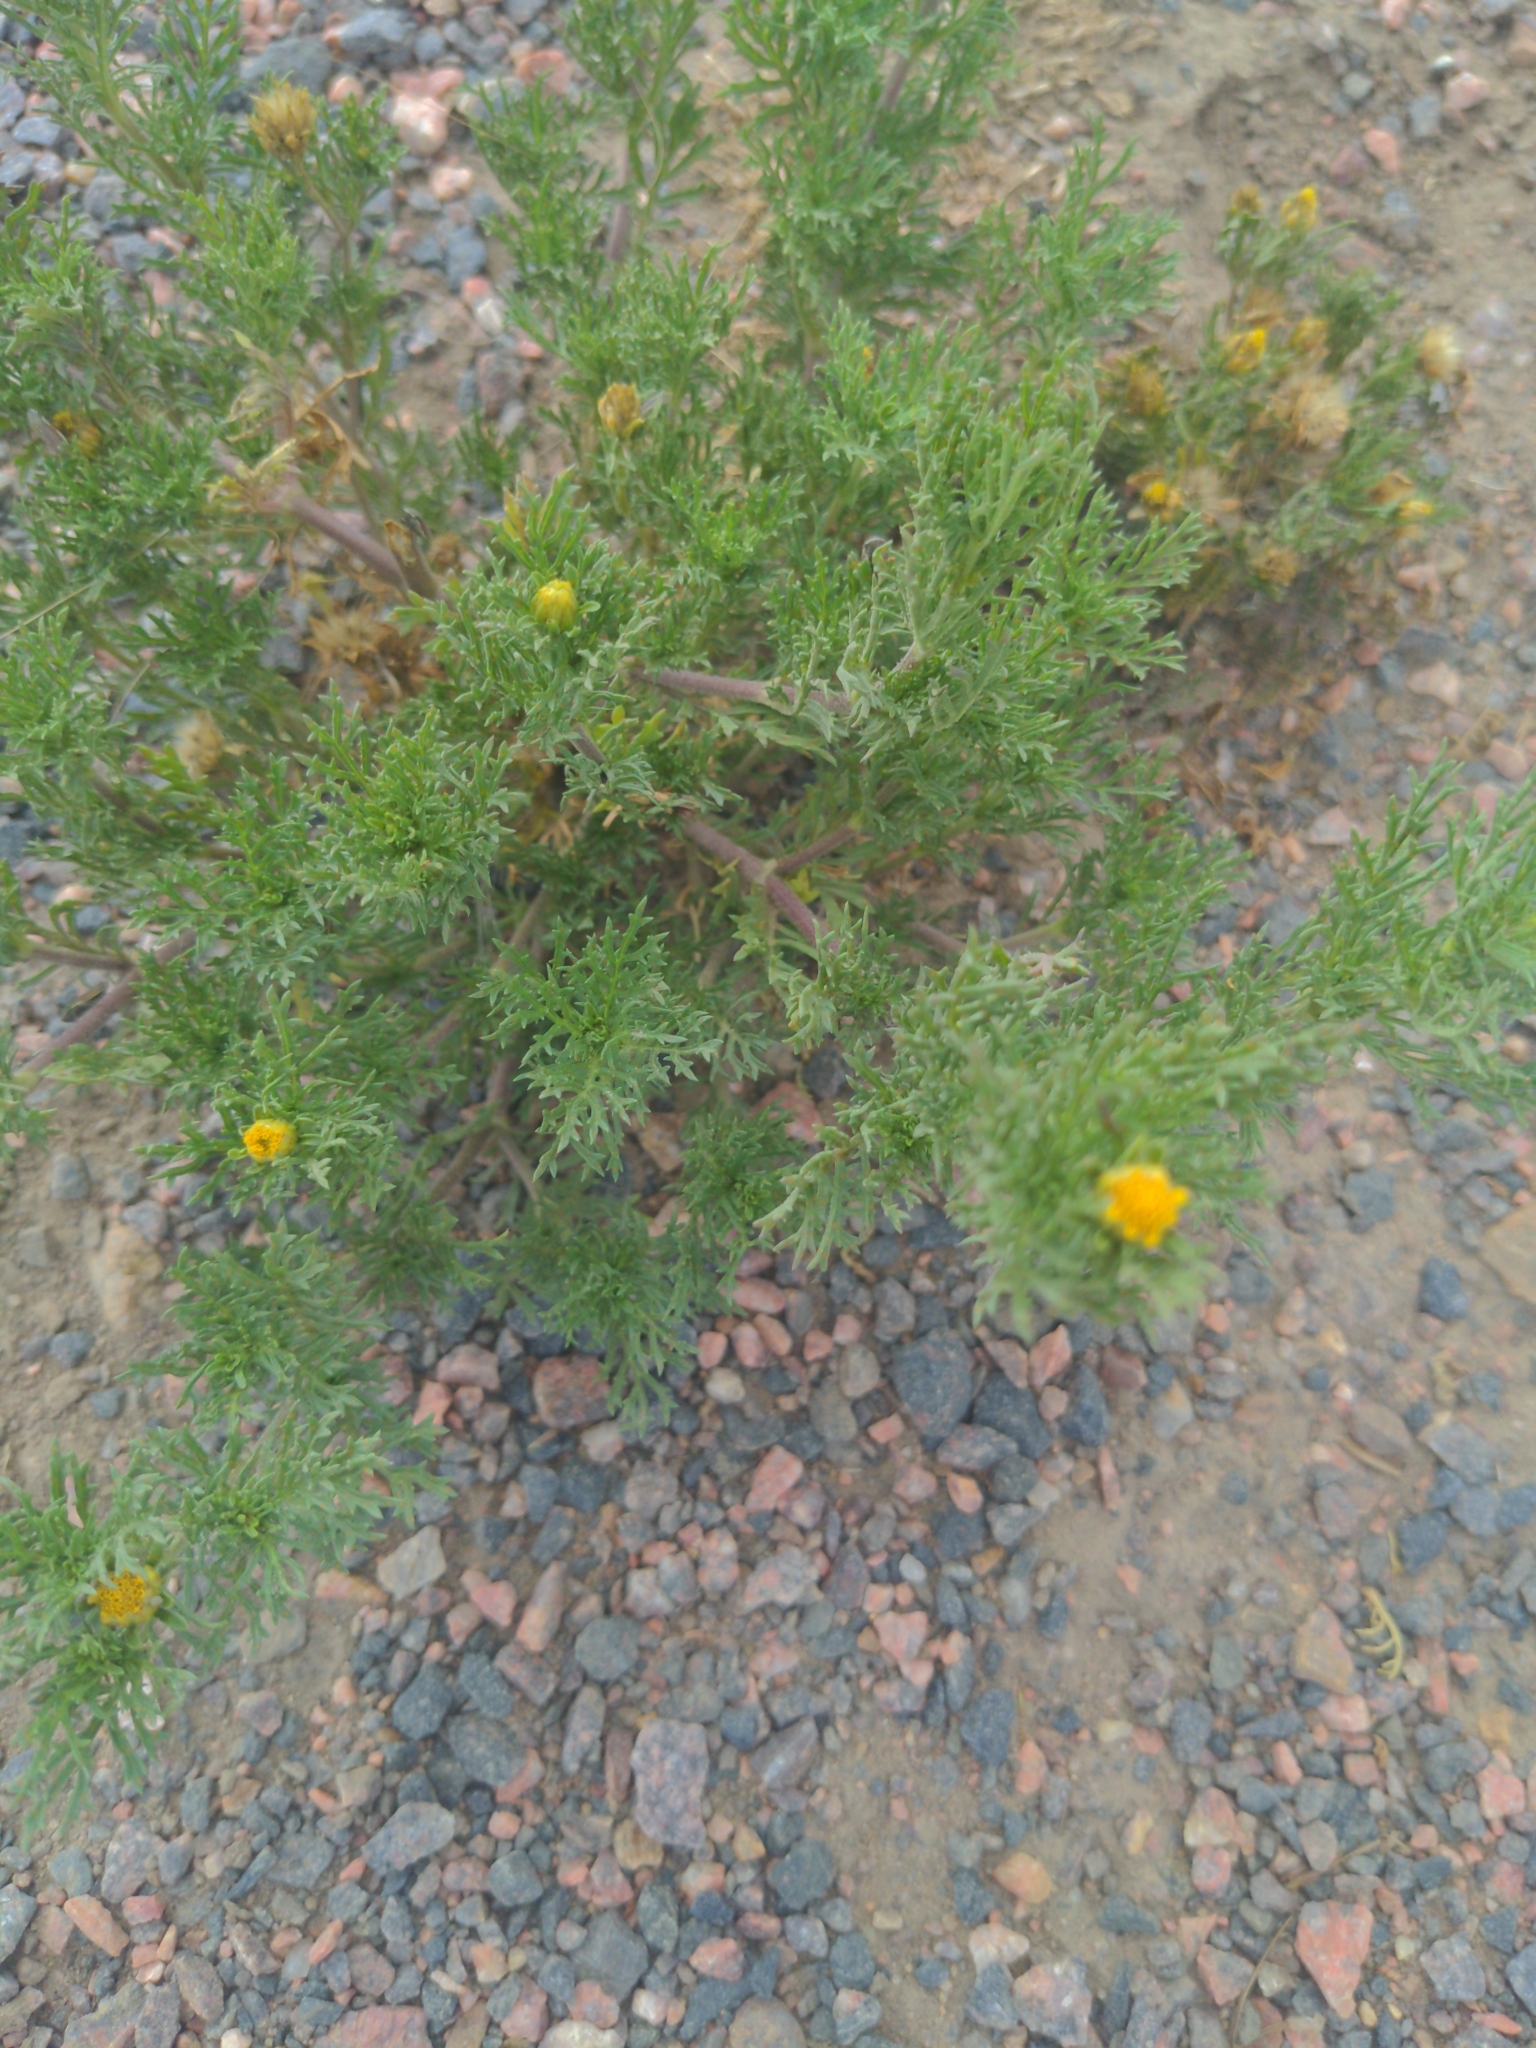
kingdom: Plantae
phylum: Tracheophyta
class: Magnoliopsida
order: Asterales
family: Asteraceae
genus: Dyssodia
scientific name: Dyssodia papposa
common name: Dogweed
